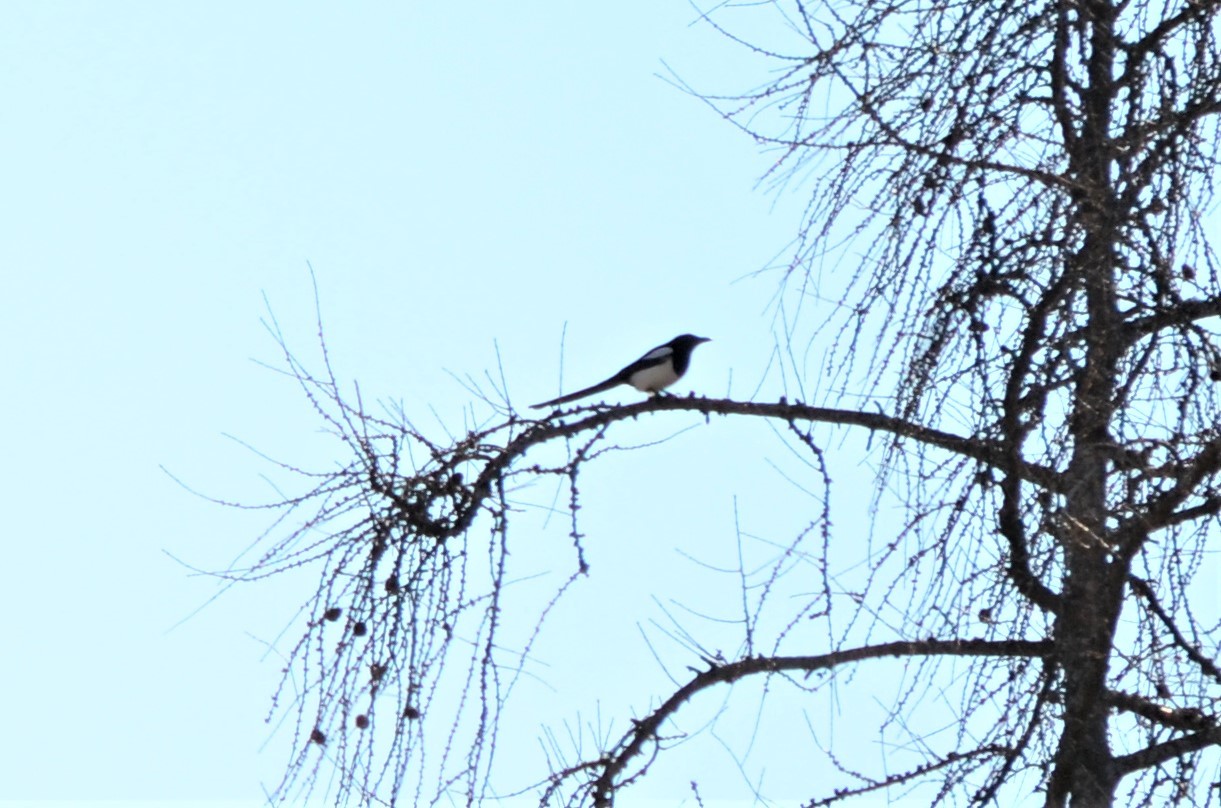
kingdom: Animalia
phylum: Chordata
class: Aves
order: Passeriformes
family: Corvidae
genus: Pica
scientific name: Pica pica
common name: Eurasian magpie
